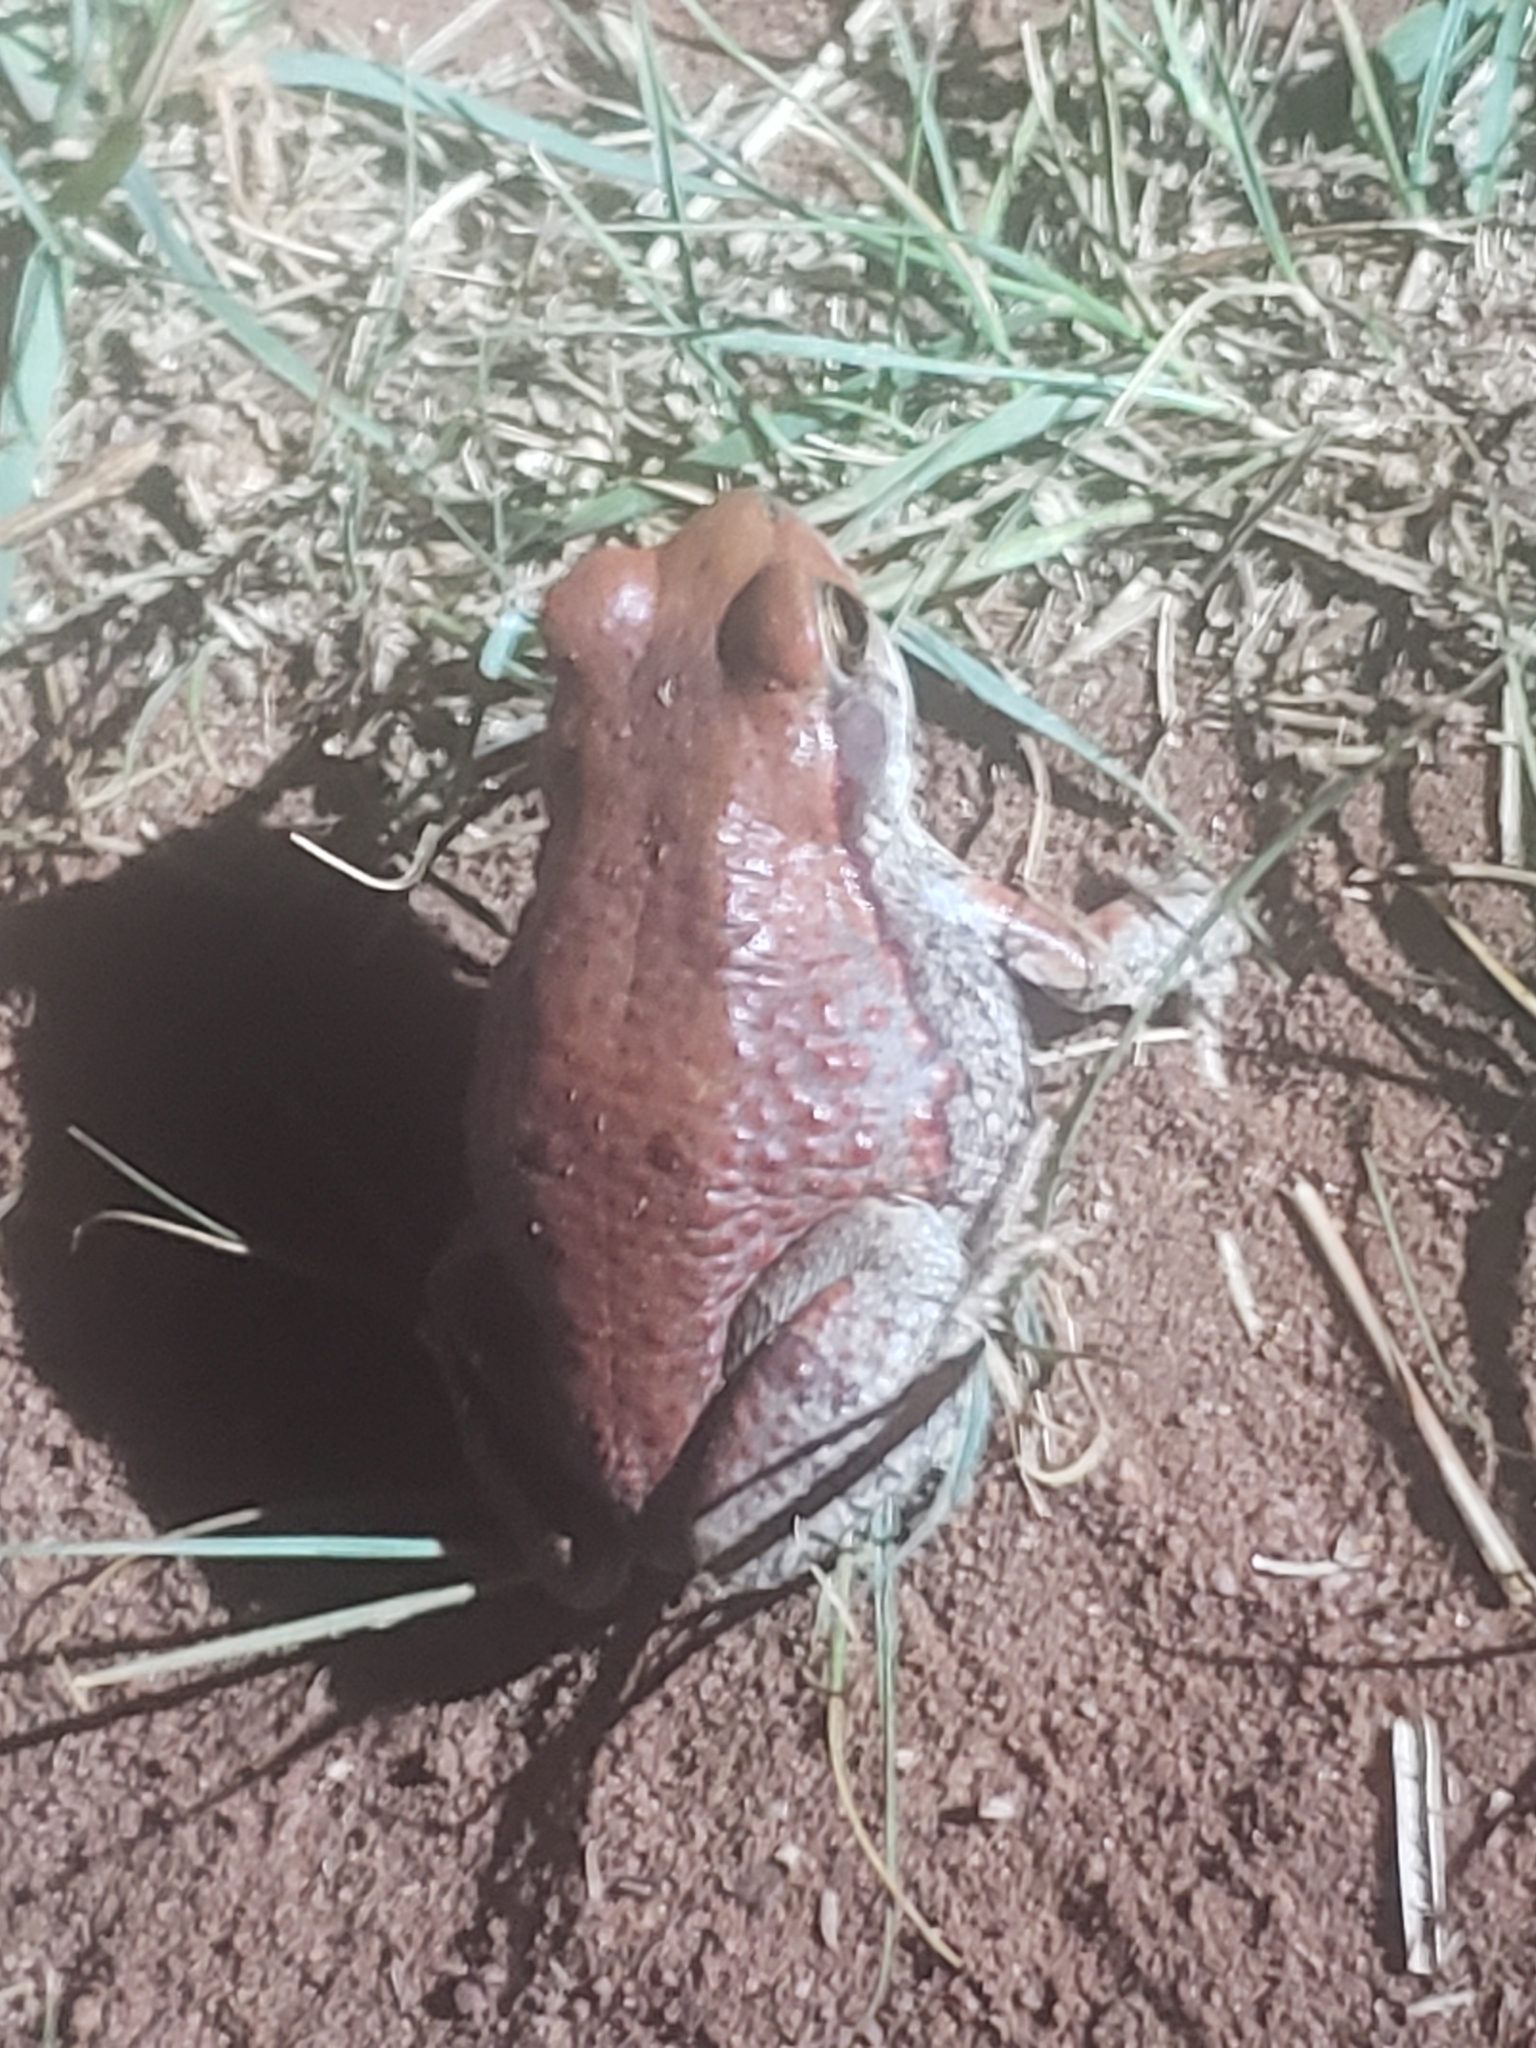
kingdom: Animalia
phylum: Chordata
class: Amphibia
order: Anura
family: Bufonidae
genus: Schismaderma
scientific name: Schismaderma carens
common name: African split-skin toad
